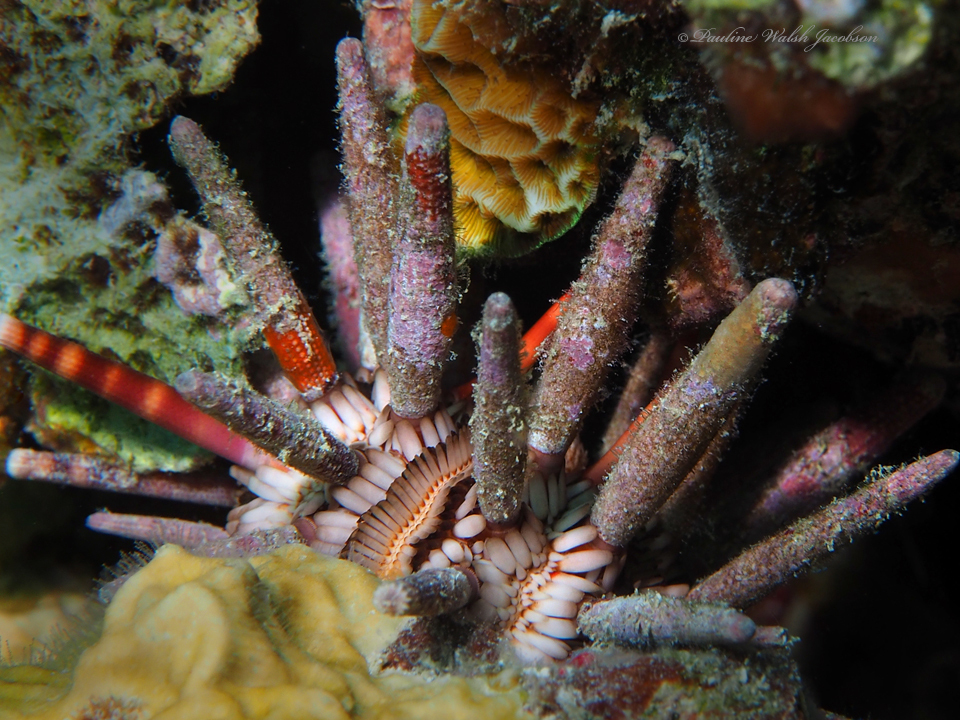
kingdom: Animalia
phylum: Echinodermata
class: Echinoidea
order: Cidaroida
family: Cidaridae
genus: Eucidaris
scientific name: Eucidaris tribuloides
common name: Slate pencil urchin
